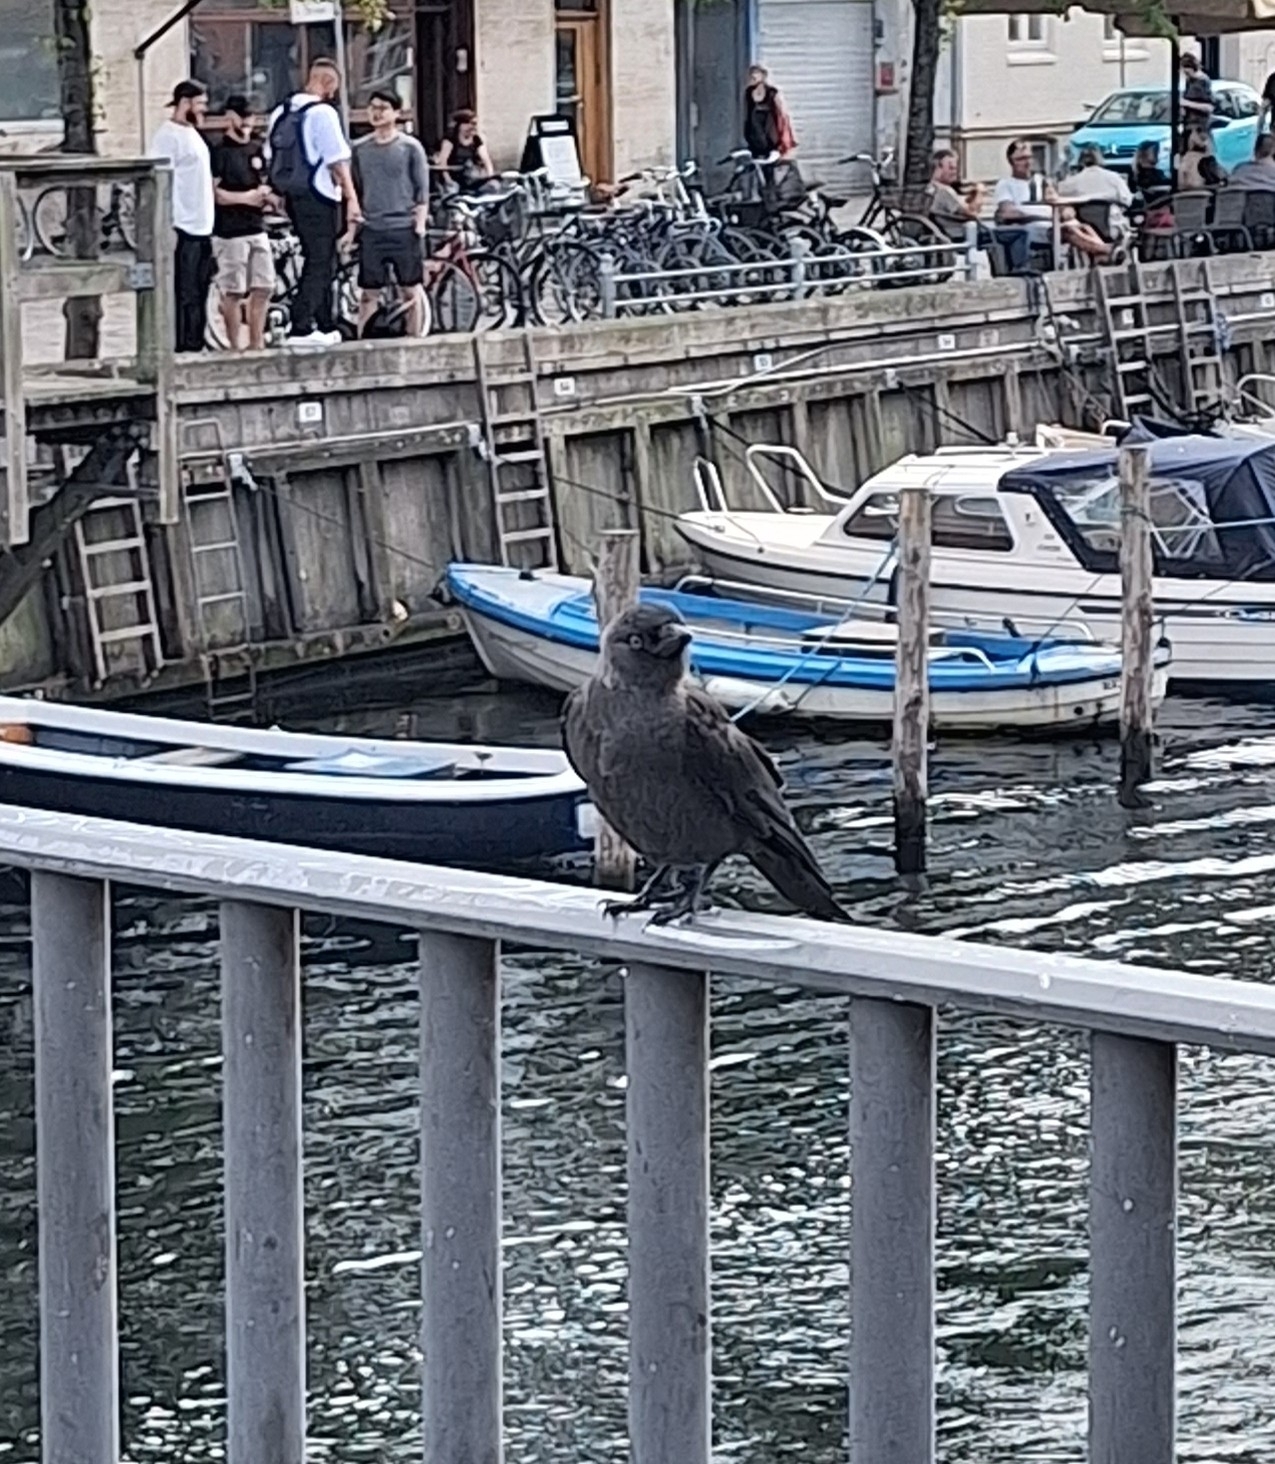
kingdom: Animalia
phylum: Chordata
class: Aves
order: Passeriformes
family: Corvidae
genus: Coloeus
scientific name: Coloeus monedula
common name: Western jackdaw
